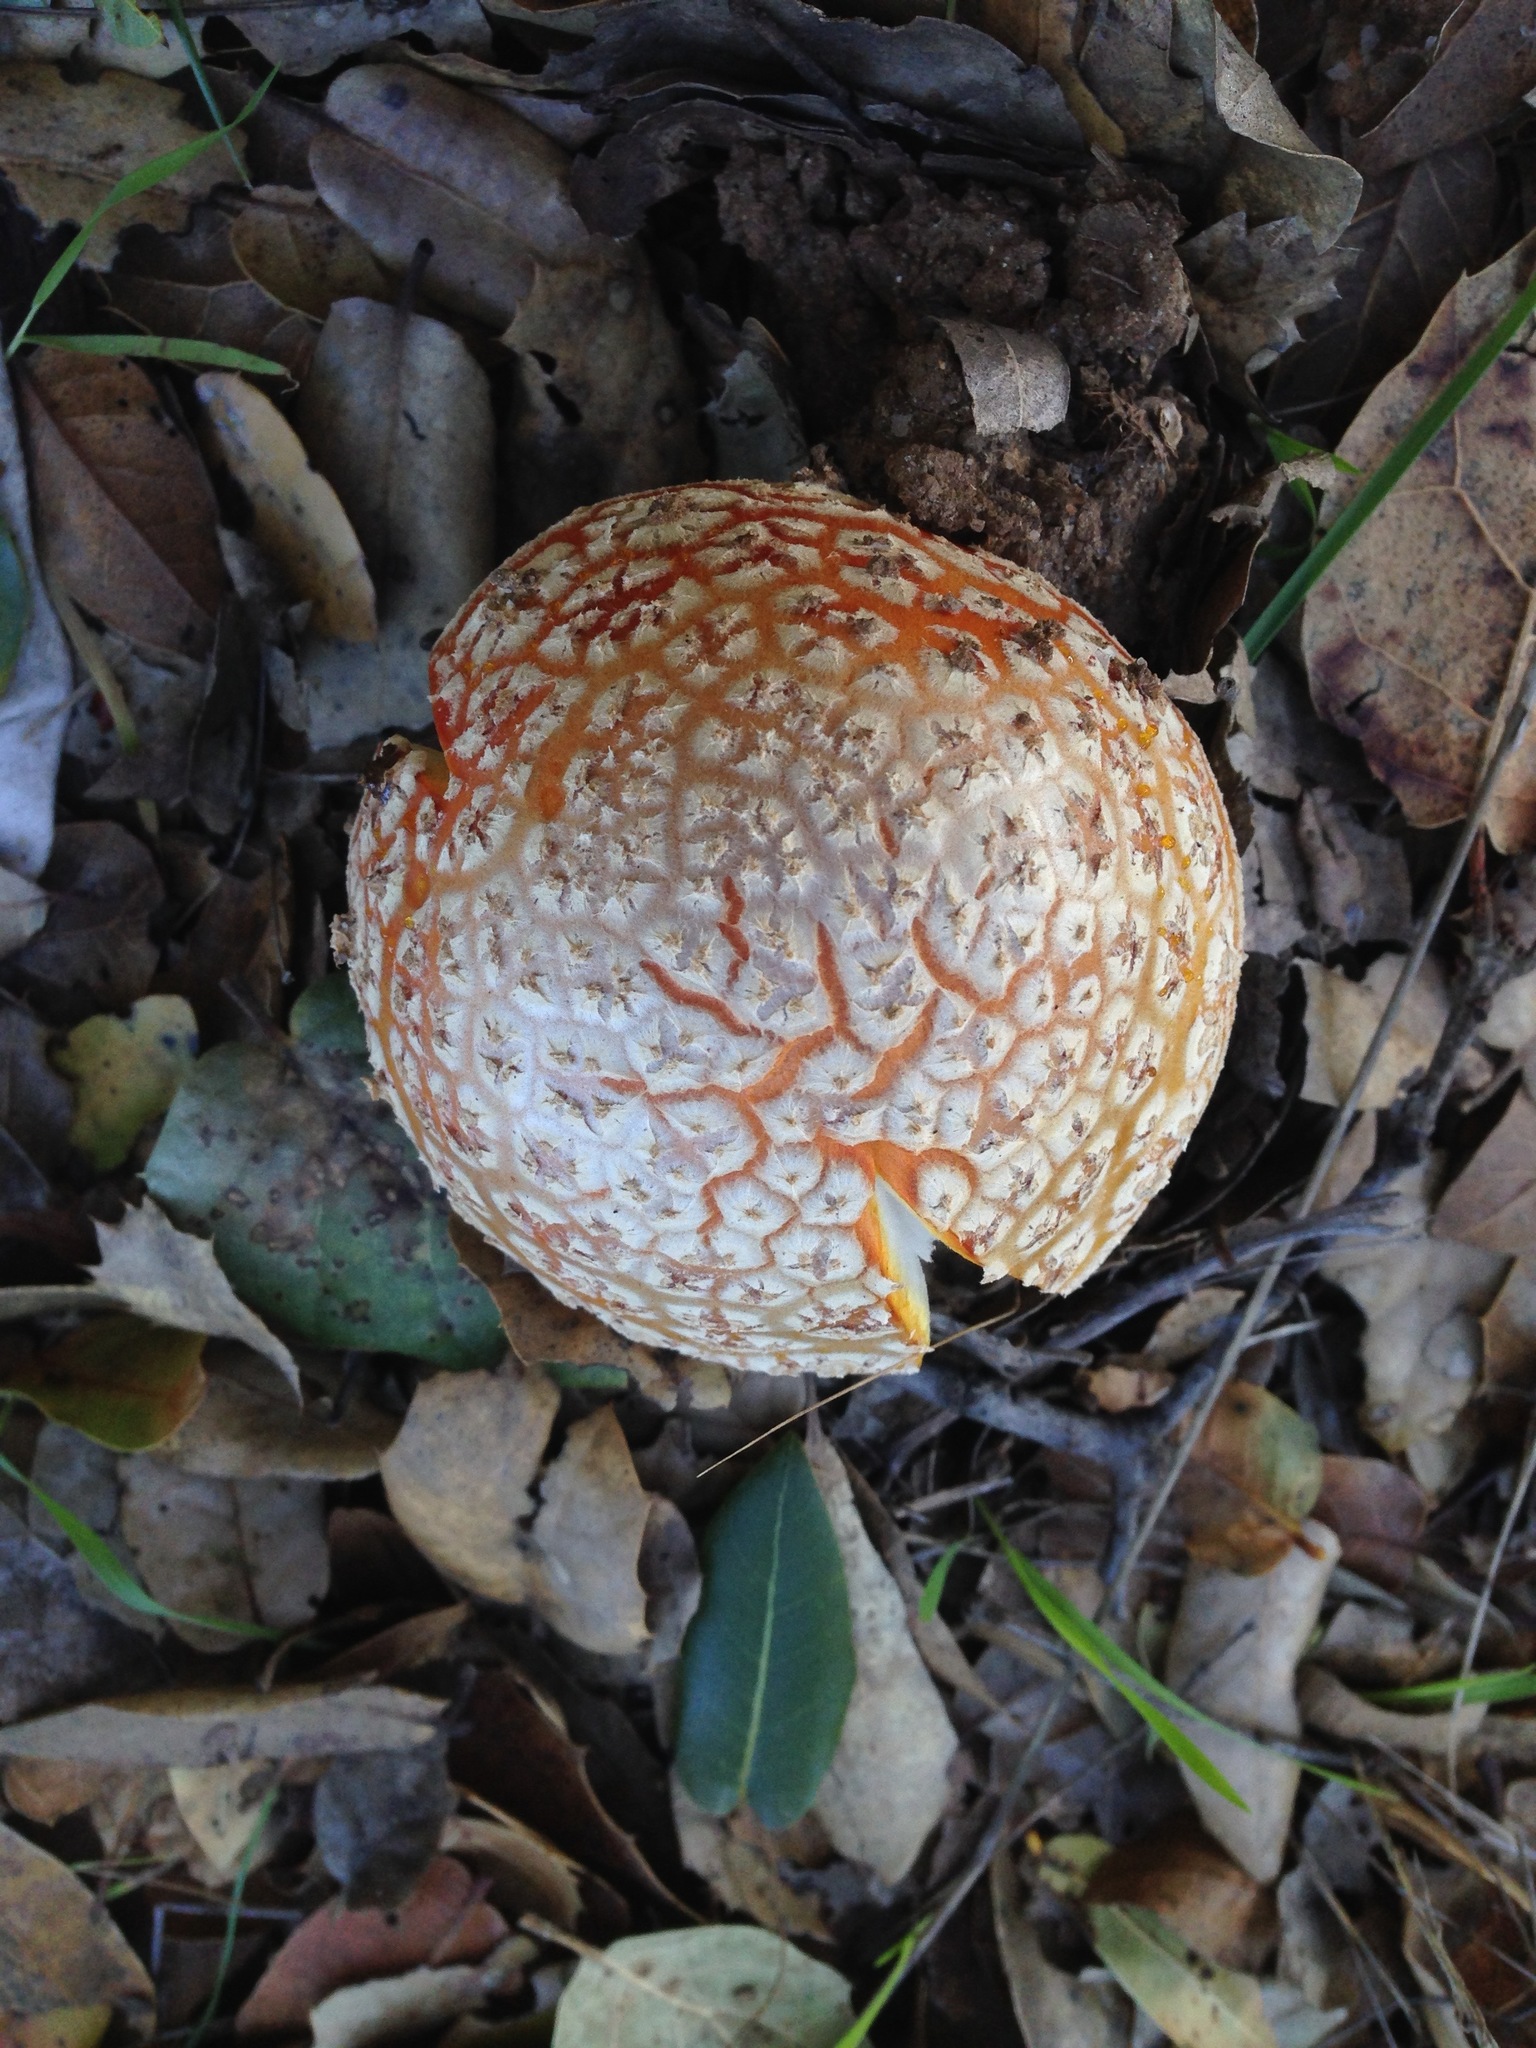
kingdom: Fungi
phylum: Basidiomycota
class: Agaricomycetes
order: Agaricales
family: Amanitaceae
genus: Amanita
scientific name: Amanita muscaria
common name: Fly agaric
